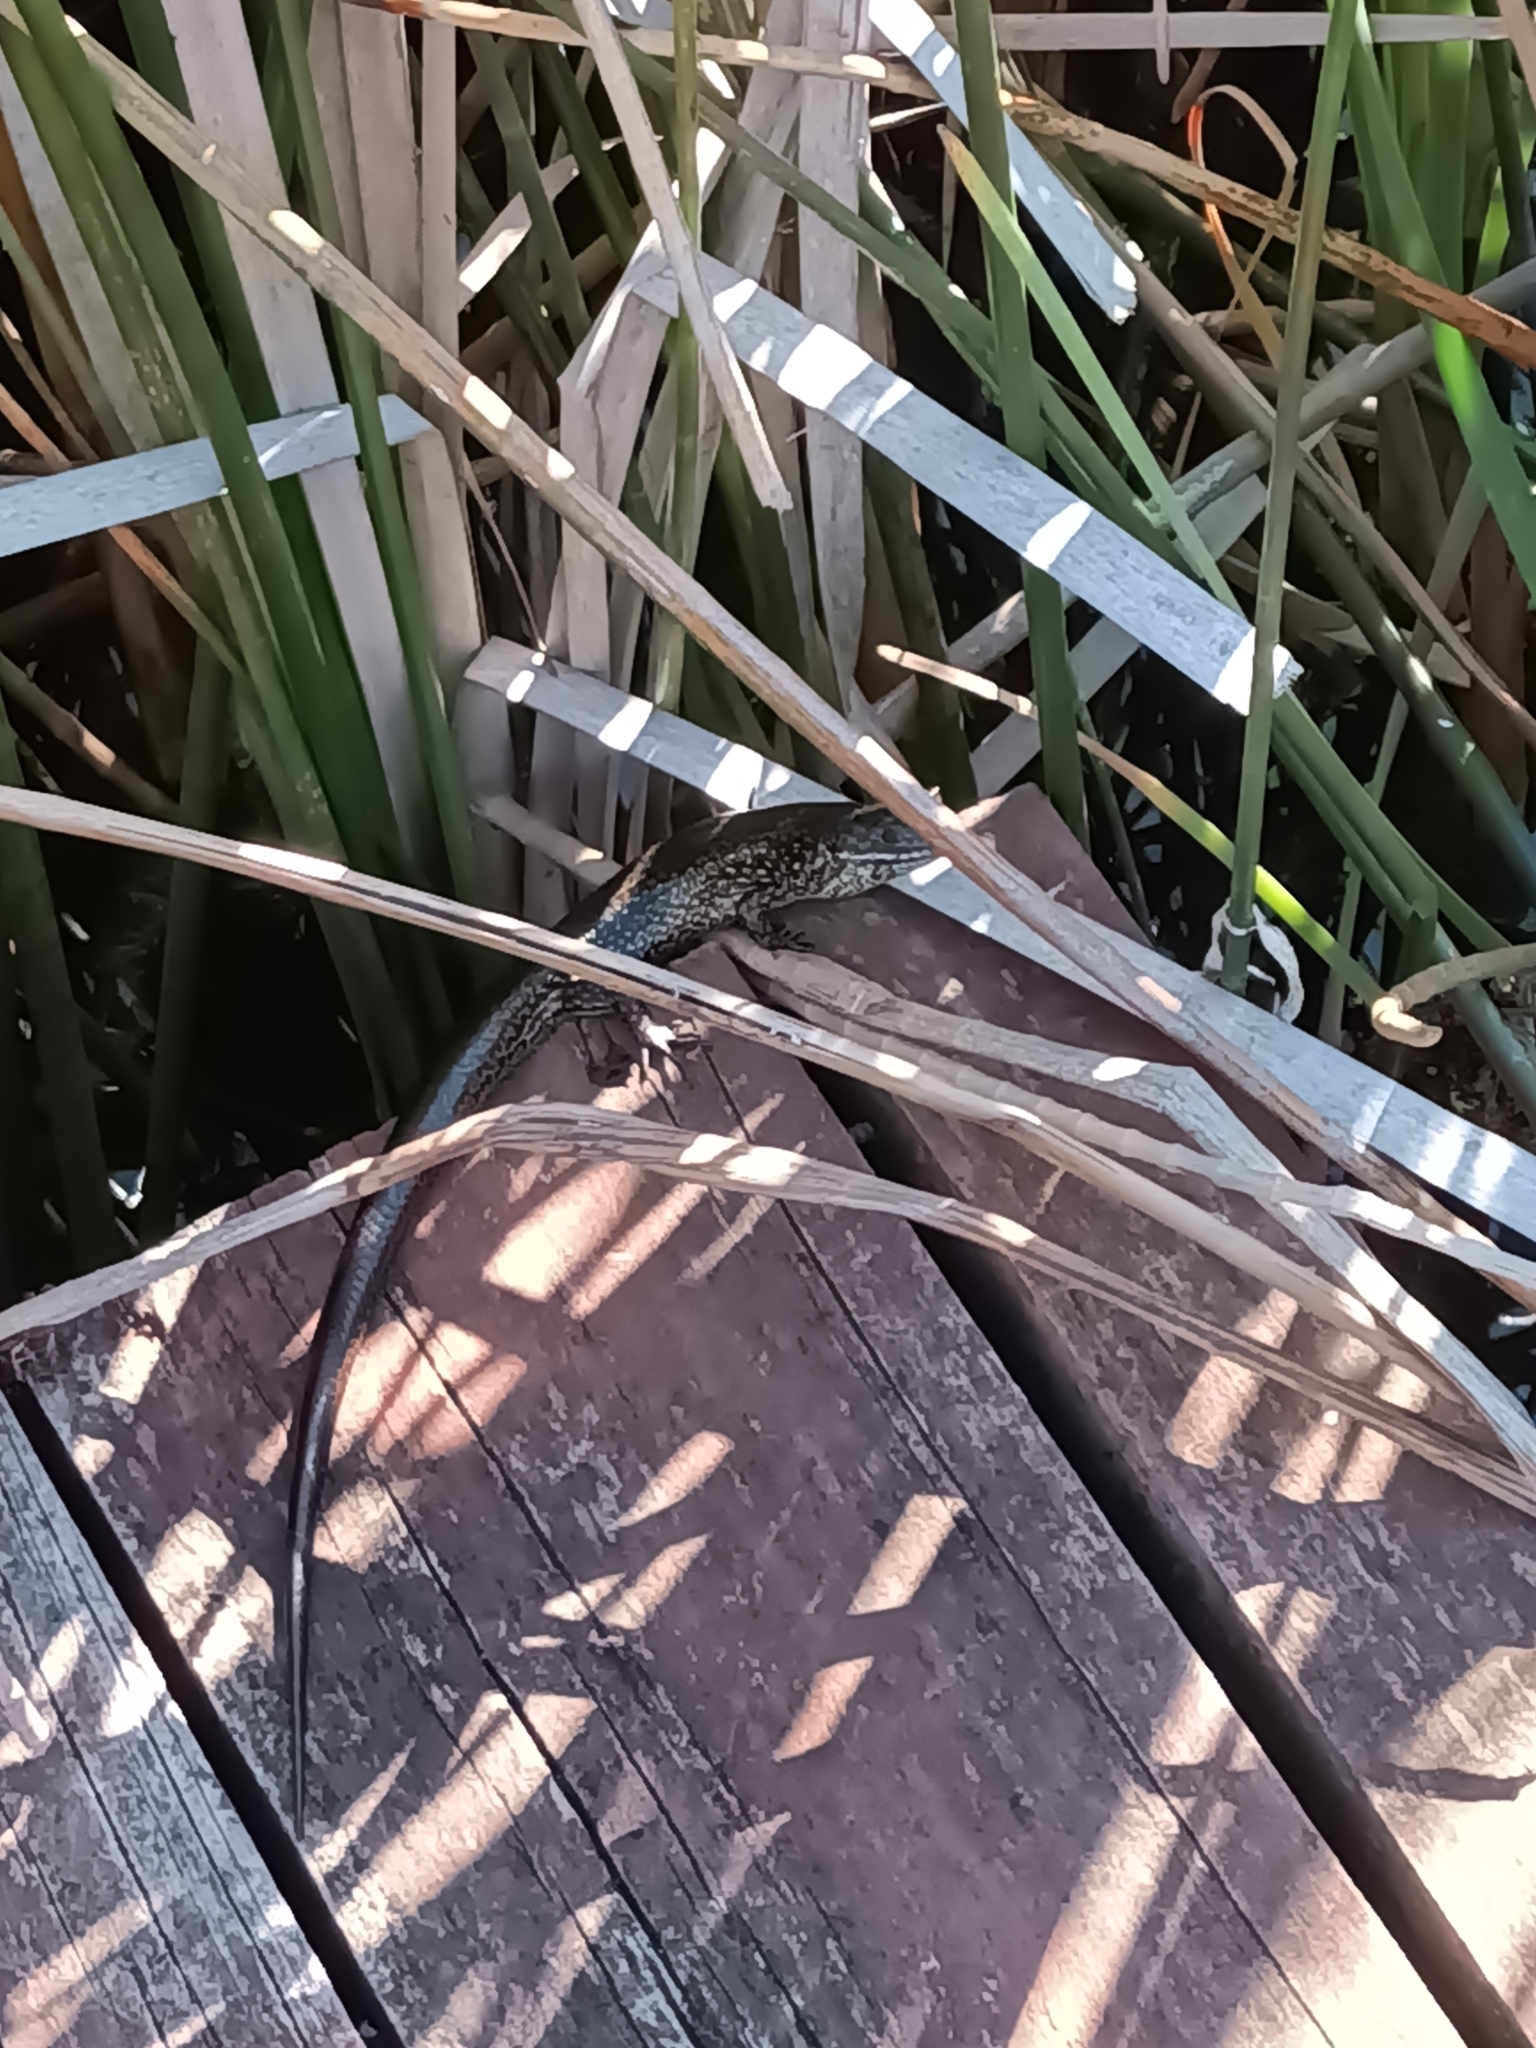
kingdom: Animalia
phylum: Chordata
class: Squamata
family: Scincidae
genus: Lissolepis
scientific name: Lissolepis luctuosa
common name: Western glossy swamp skink
